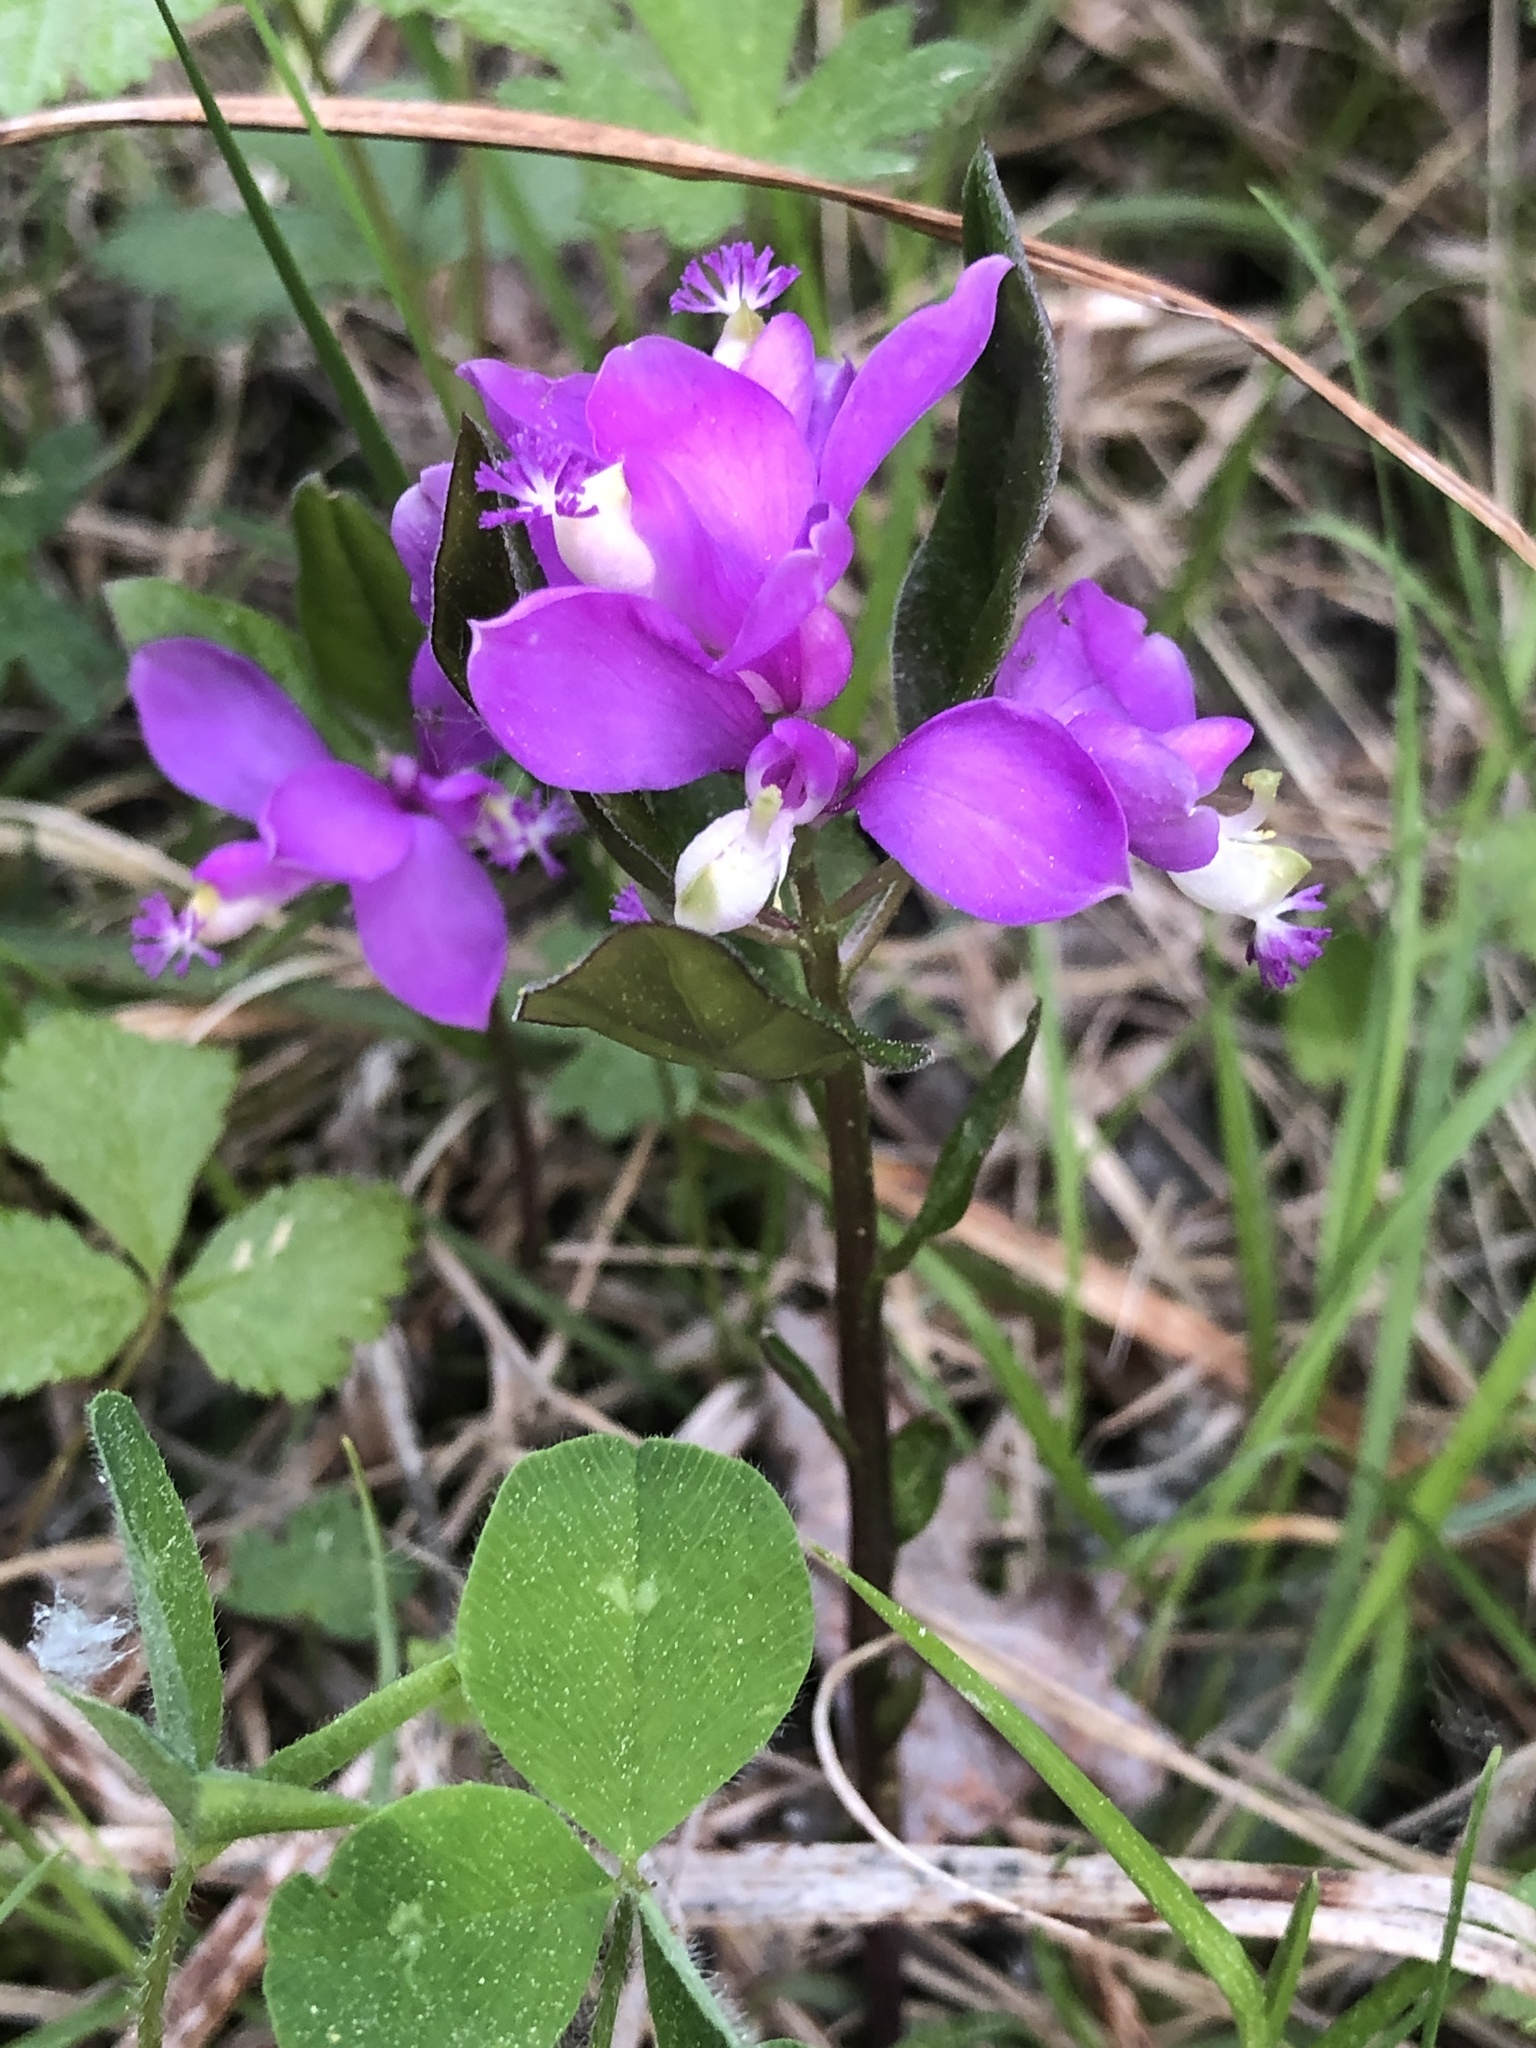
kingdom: Plantae
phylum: Tracheophyta
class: Magnoliopsida
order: Fabales
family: Polygalaceae
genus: Polygaloides
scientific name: Polygaloides paucifolia
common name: Bird-on-the-wing
